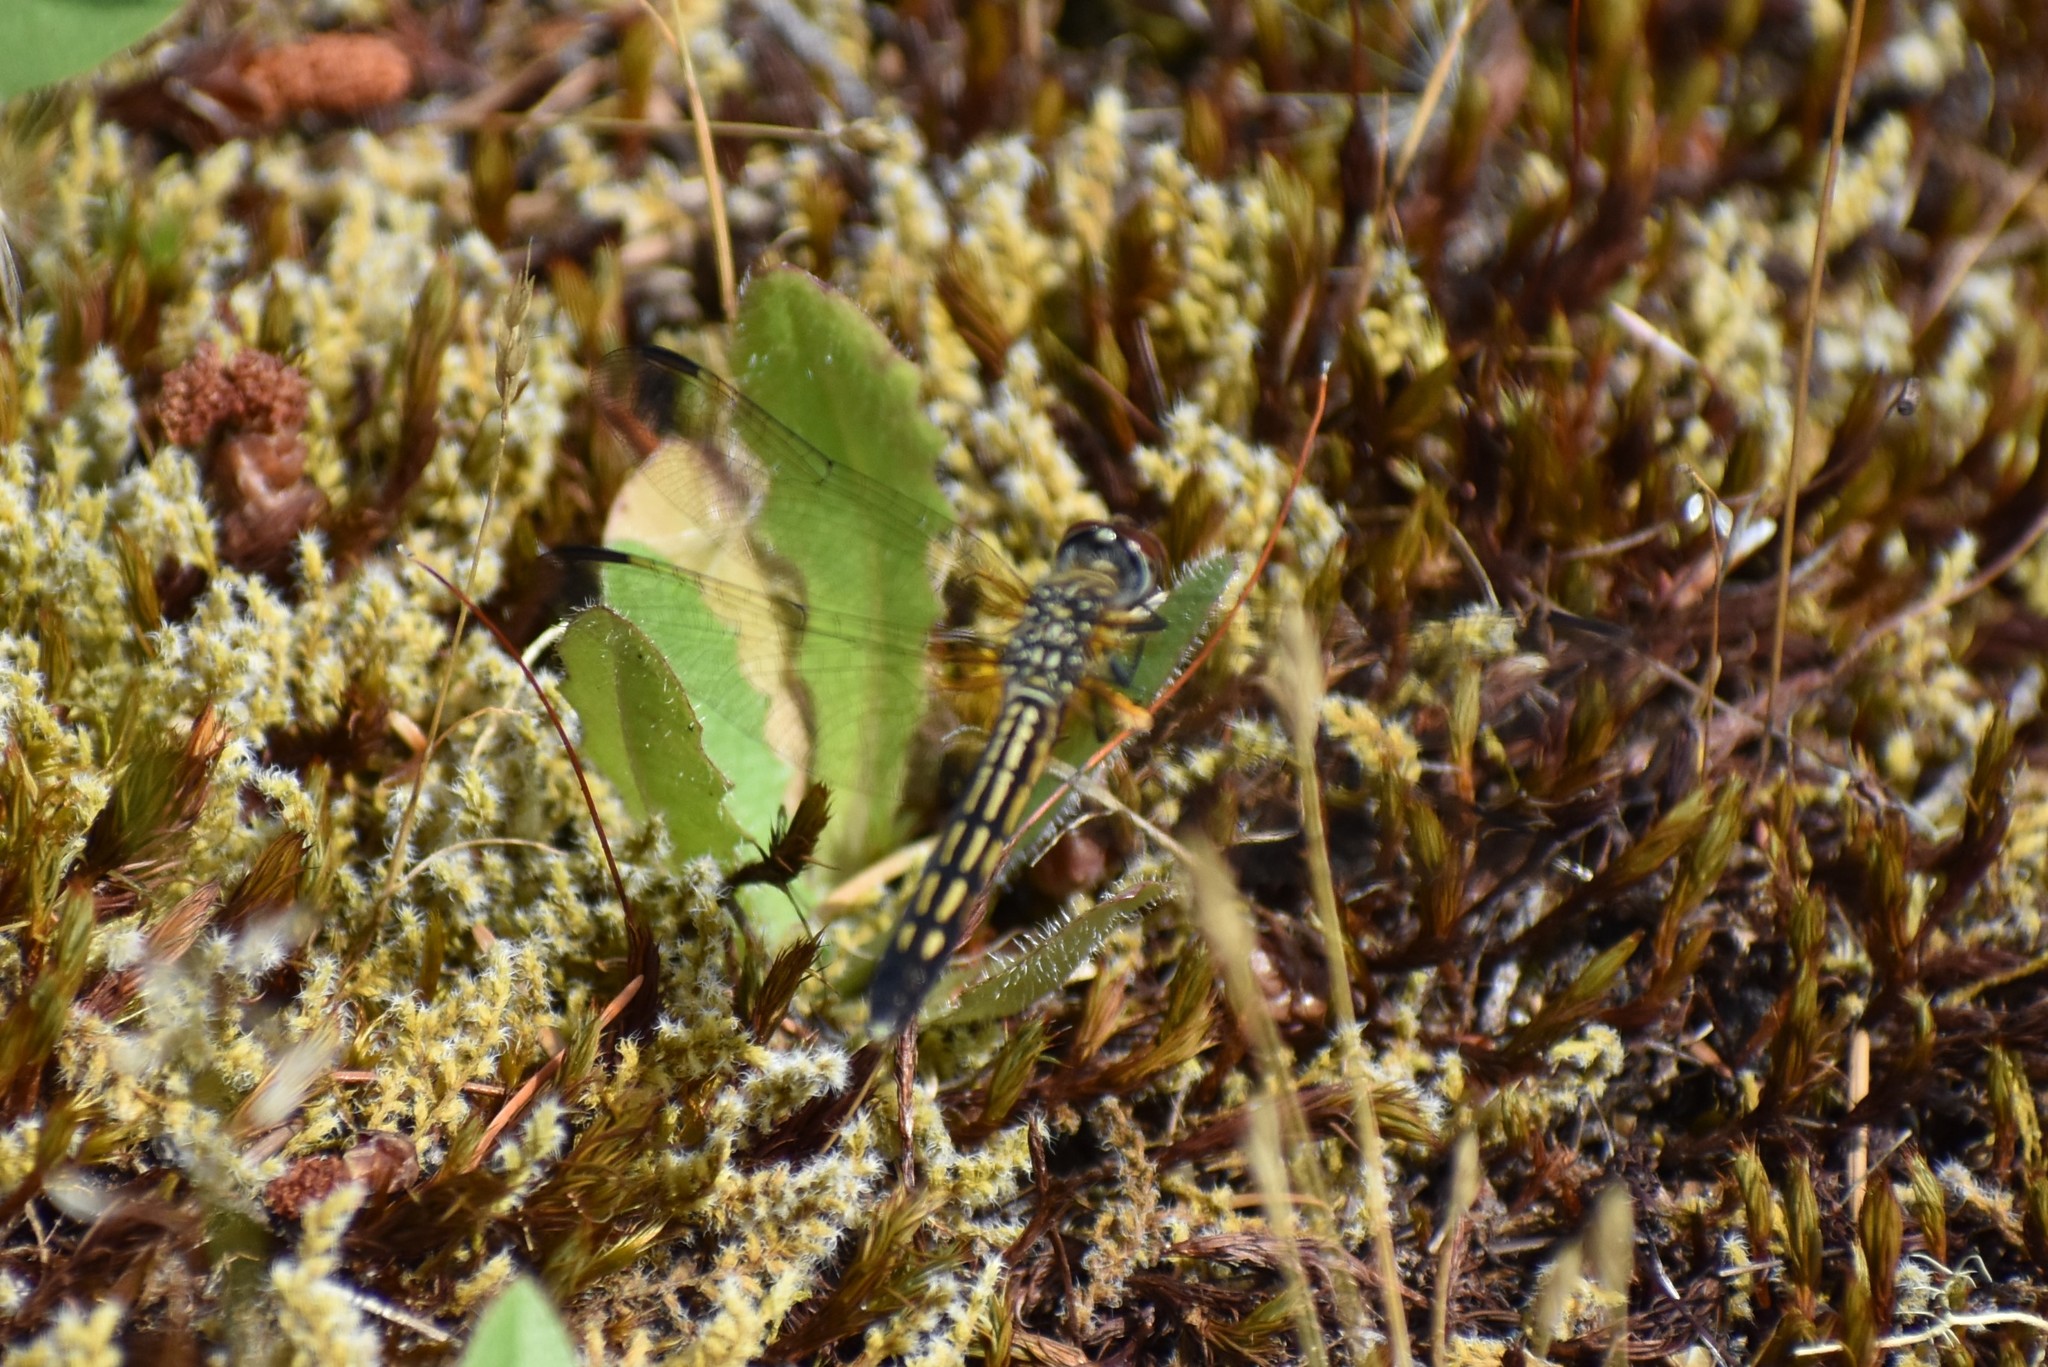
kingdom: Animalia
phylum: Arthropoda
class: Insecta
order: Odonata
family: Libellulidae
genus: Pachydiplax
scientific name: Pachydiplax longipennis
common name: Blue dasher
